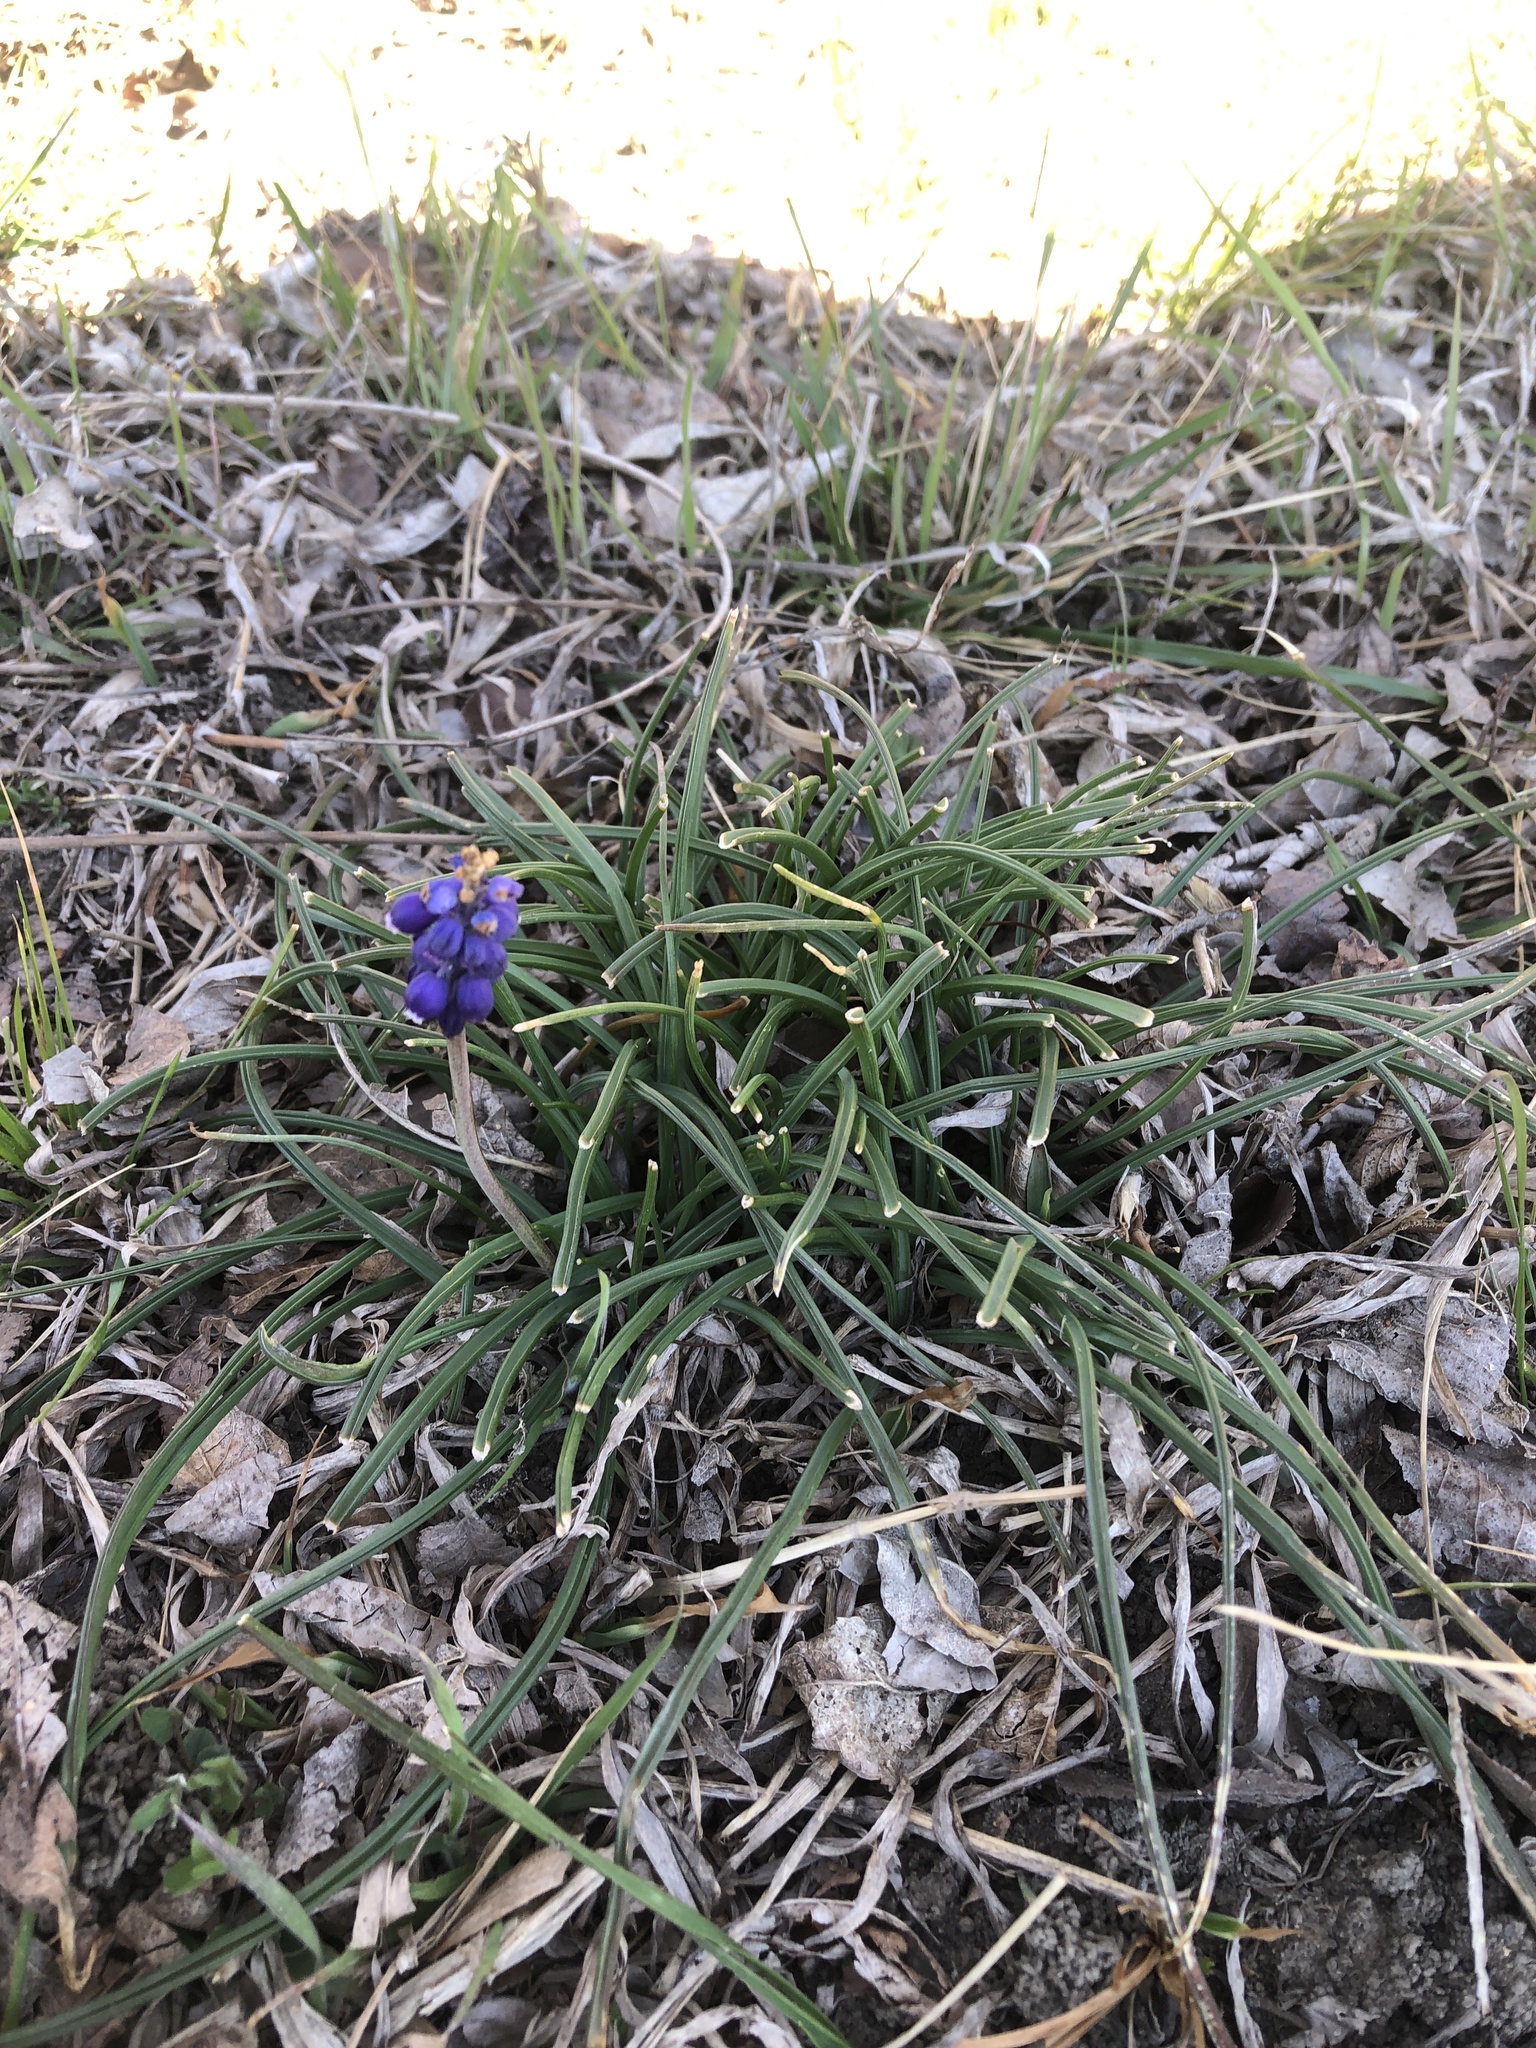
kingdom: Plantae
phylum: Tracheophyta
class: Liliopsida
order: Asparagales
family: Asparagaceae
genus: Muscari
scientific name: Muscari neglectum
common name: Grape-hyacinth
